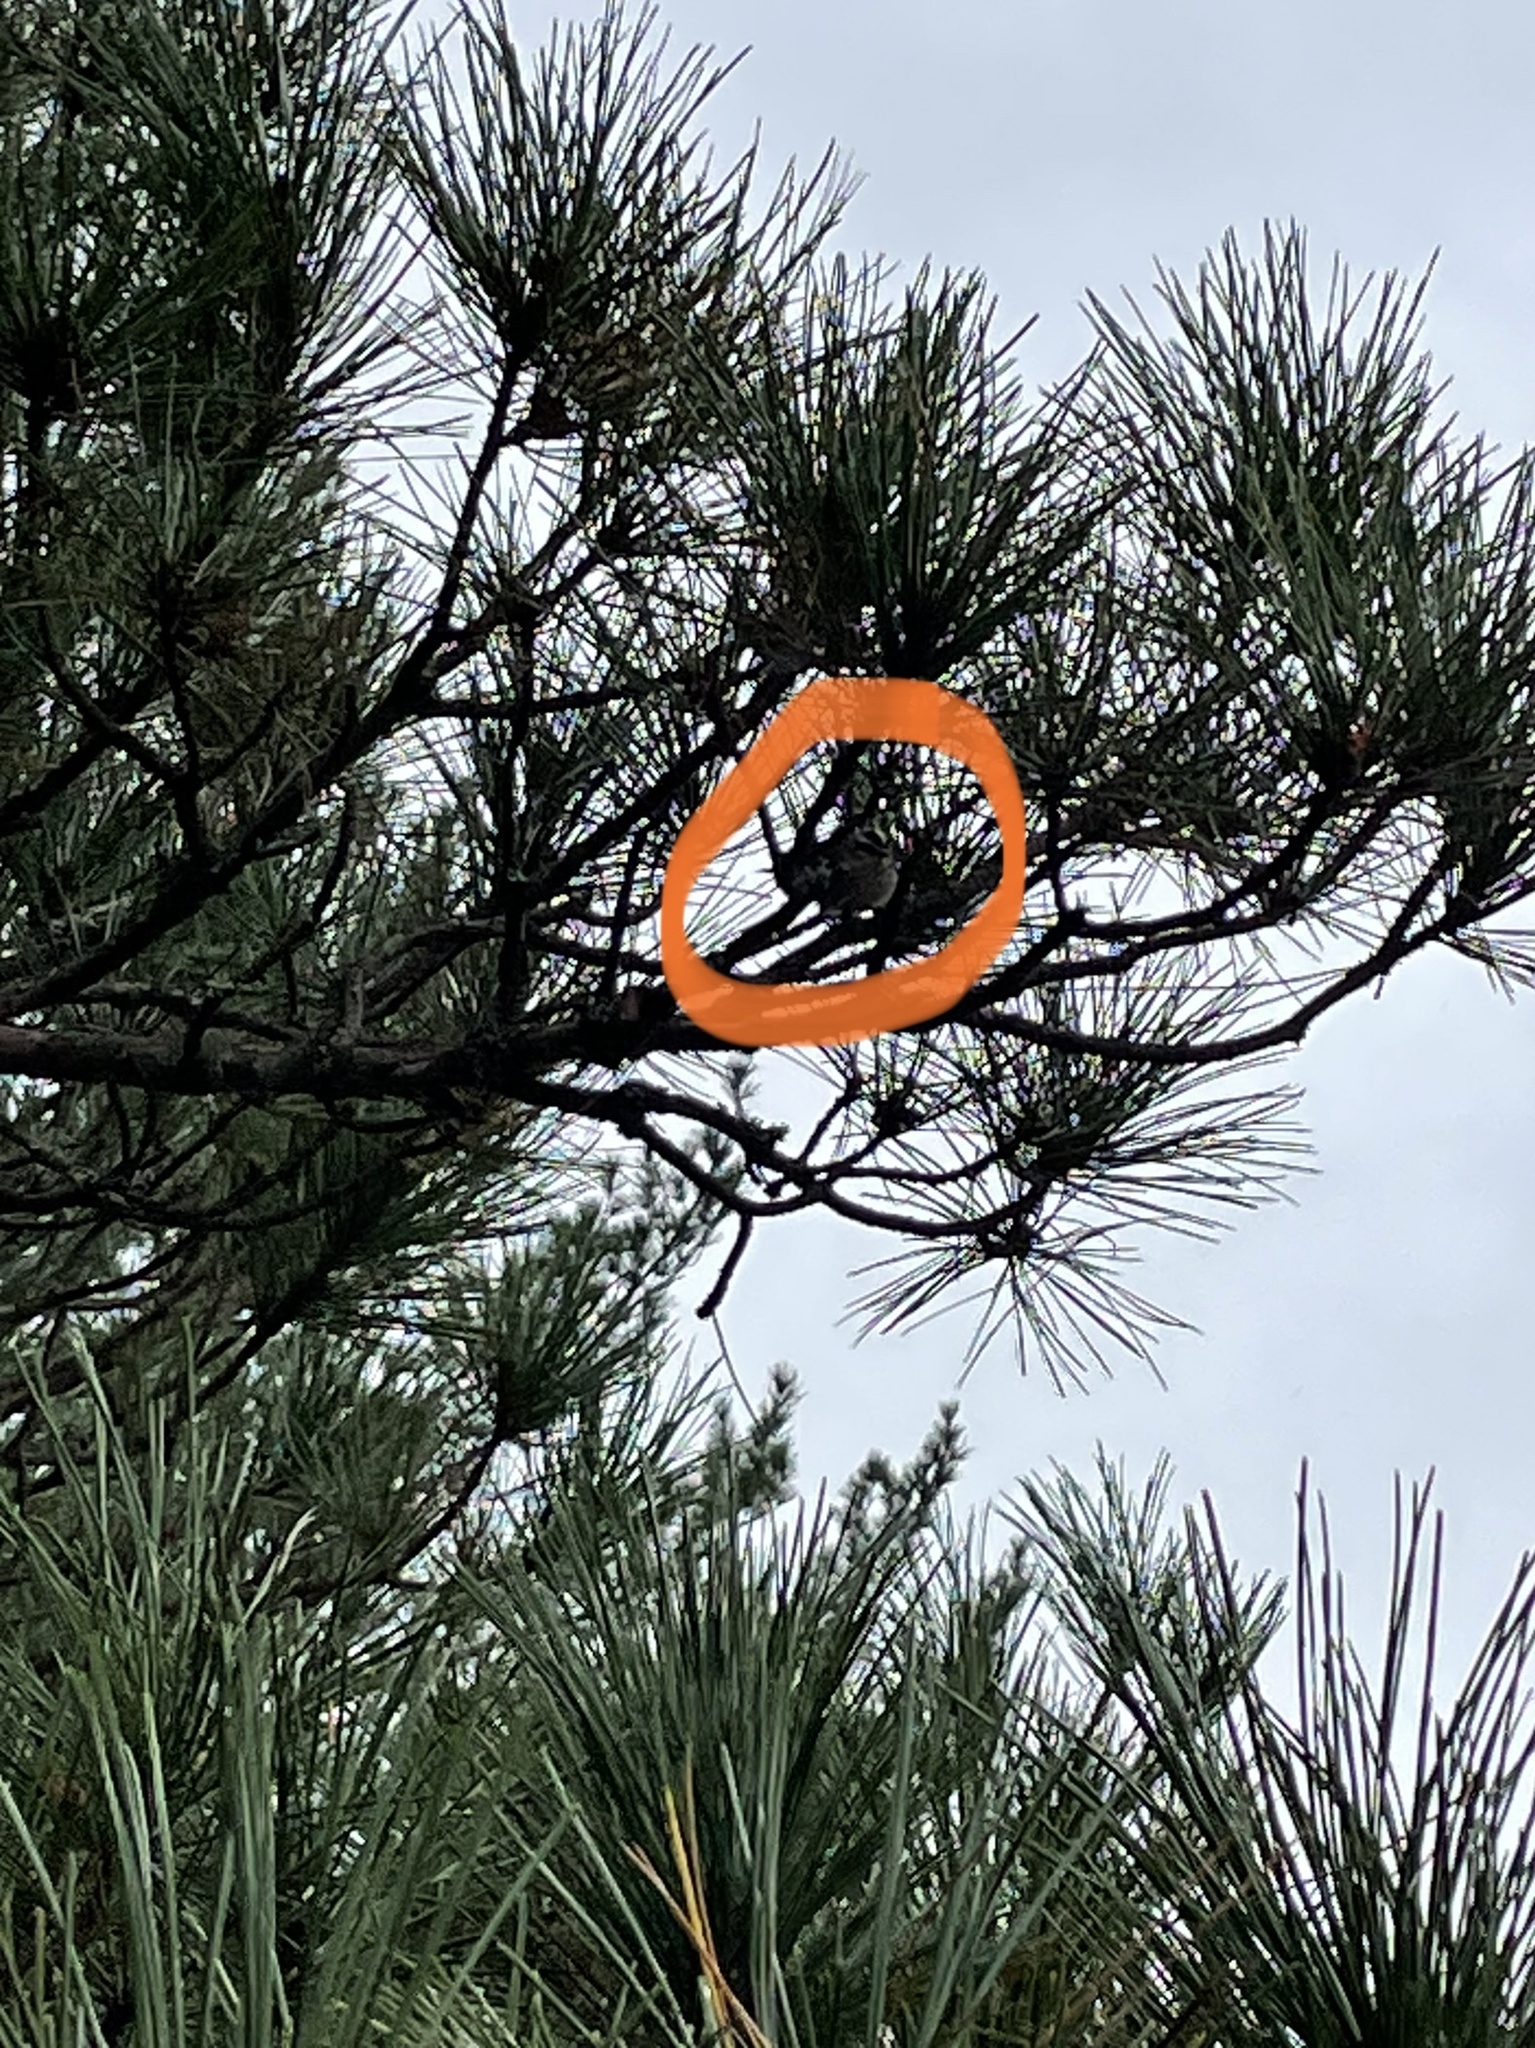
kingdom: Animalia
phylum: Chordata
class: Aves
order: Passeriformes
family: Regulidae
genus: Regulus
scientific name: Regulus satrapa
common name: Golden-crowned kinglet
